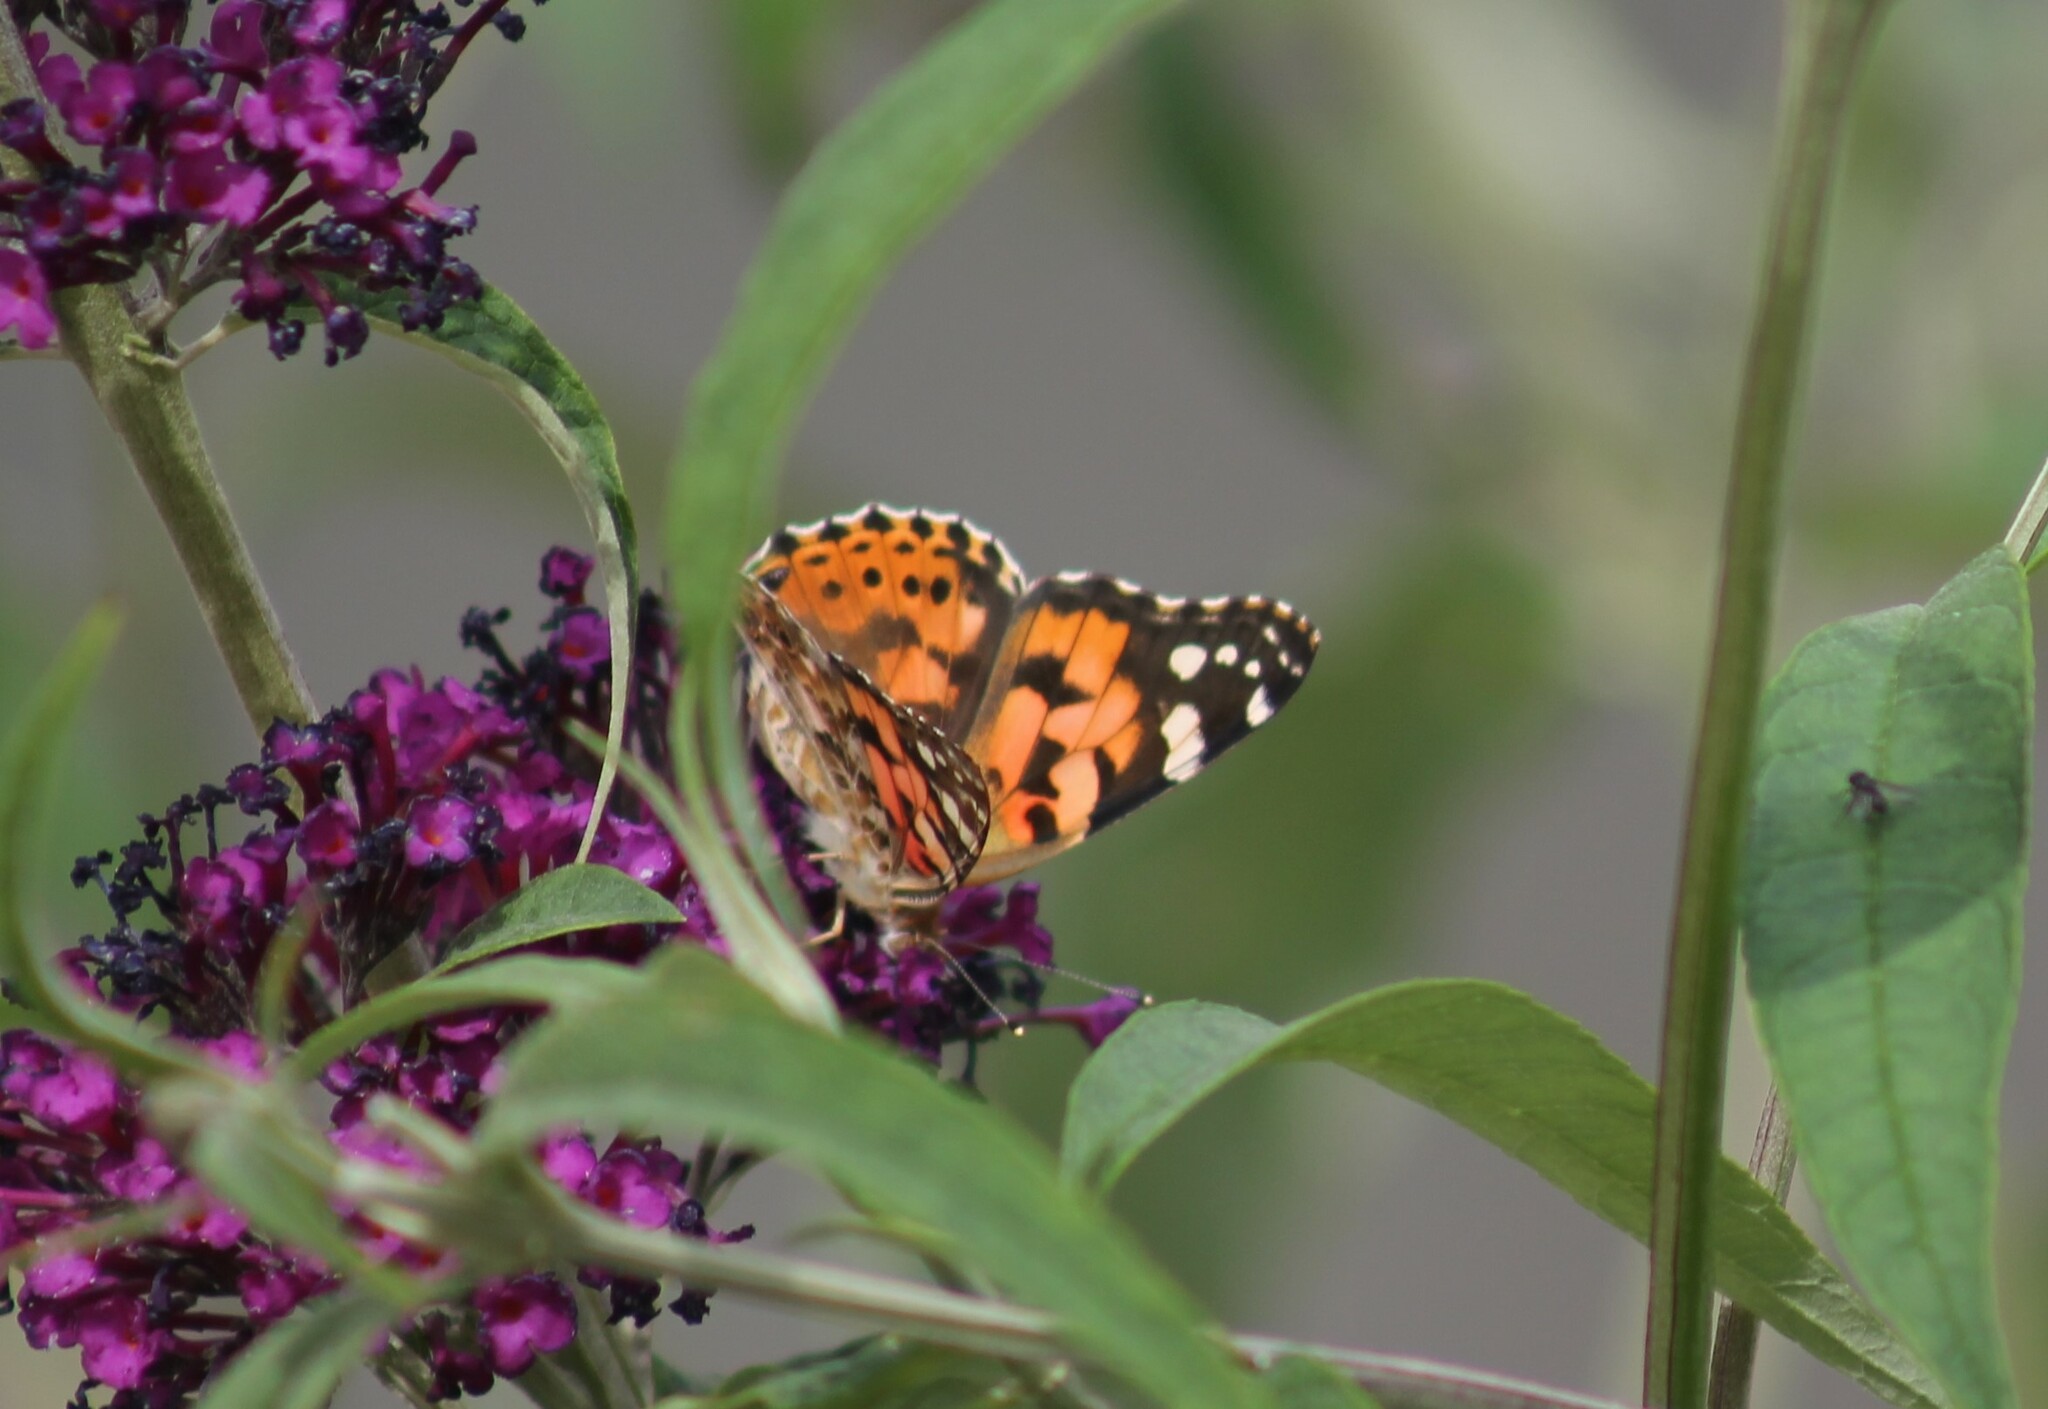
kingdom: Animalia
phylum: Arthropoda
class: Insecta
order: Lepidoptera
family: Nymphalidae
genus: Vanessa
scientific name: Vanessa cardui
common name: Painted lady
